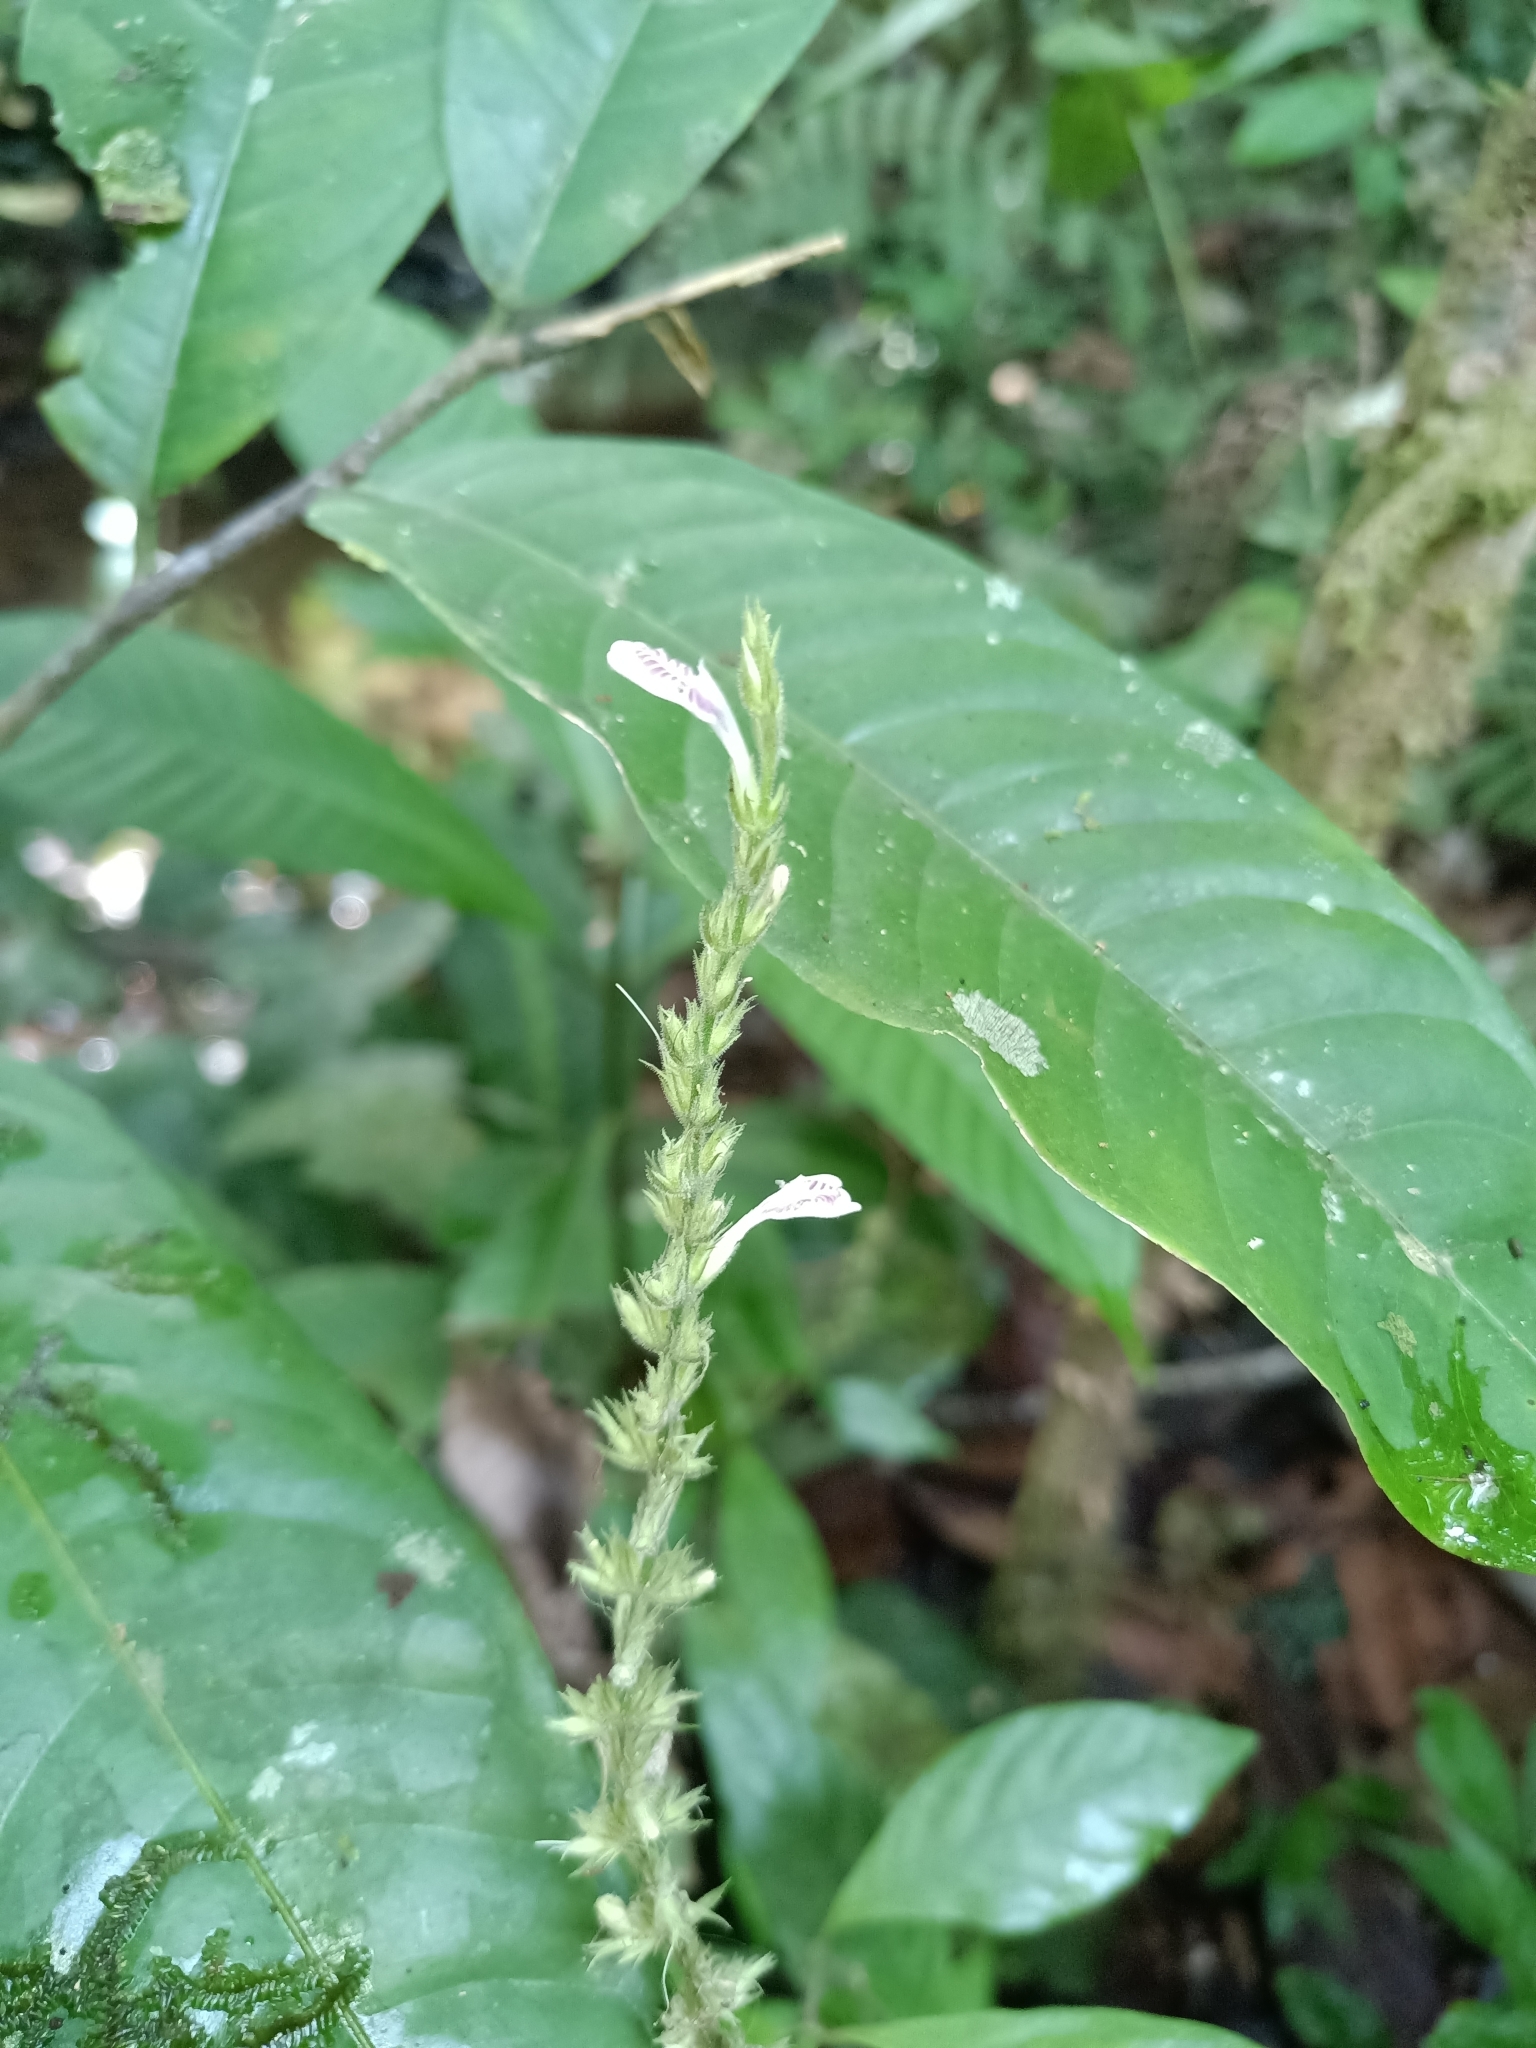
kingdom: Plantae
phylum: Tracheophyta
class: Magnoliopsida
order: Lamiales
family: Acanthaceae
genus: Dianthera
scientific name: Dianthera cayennensis
